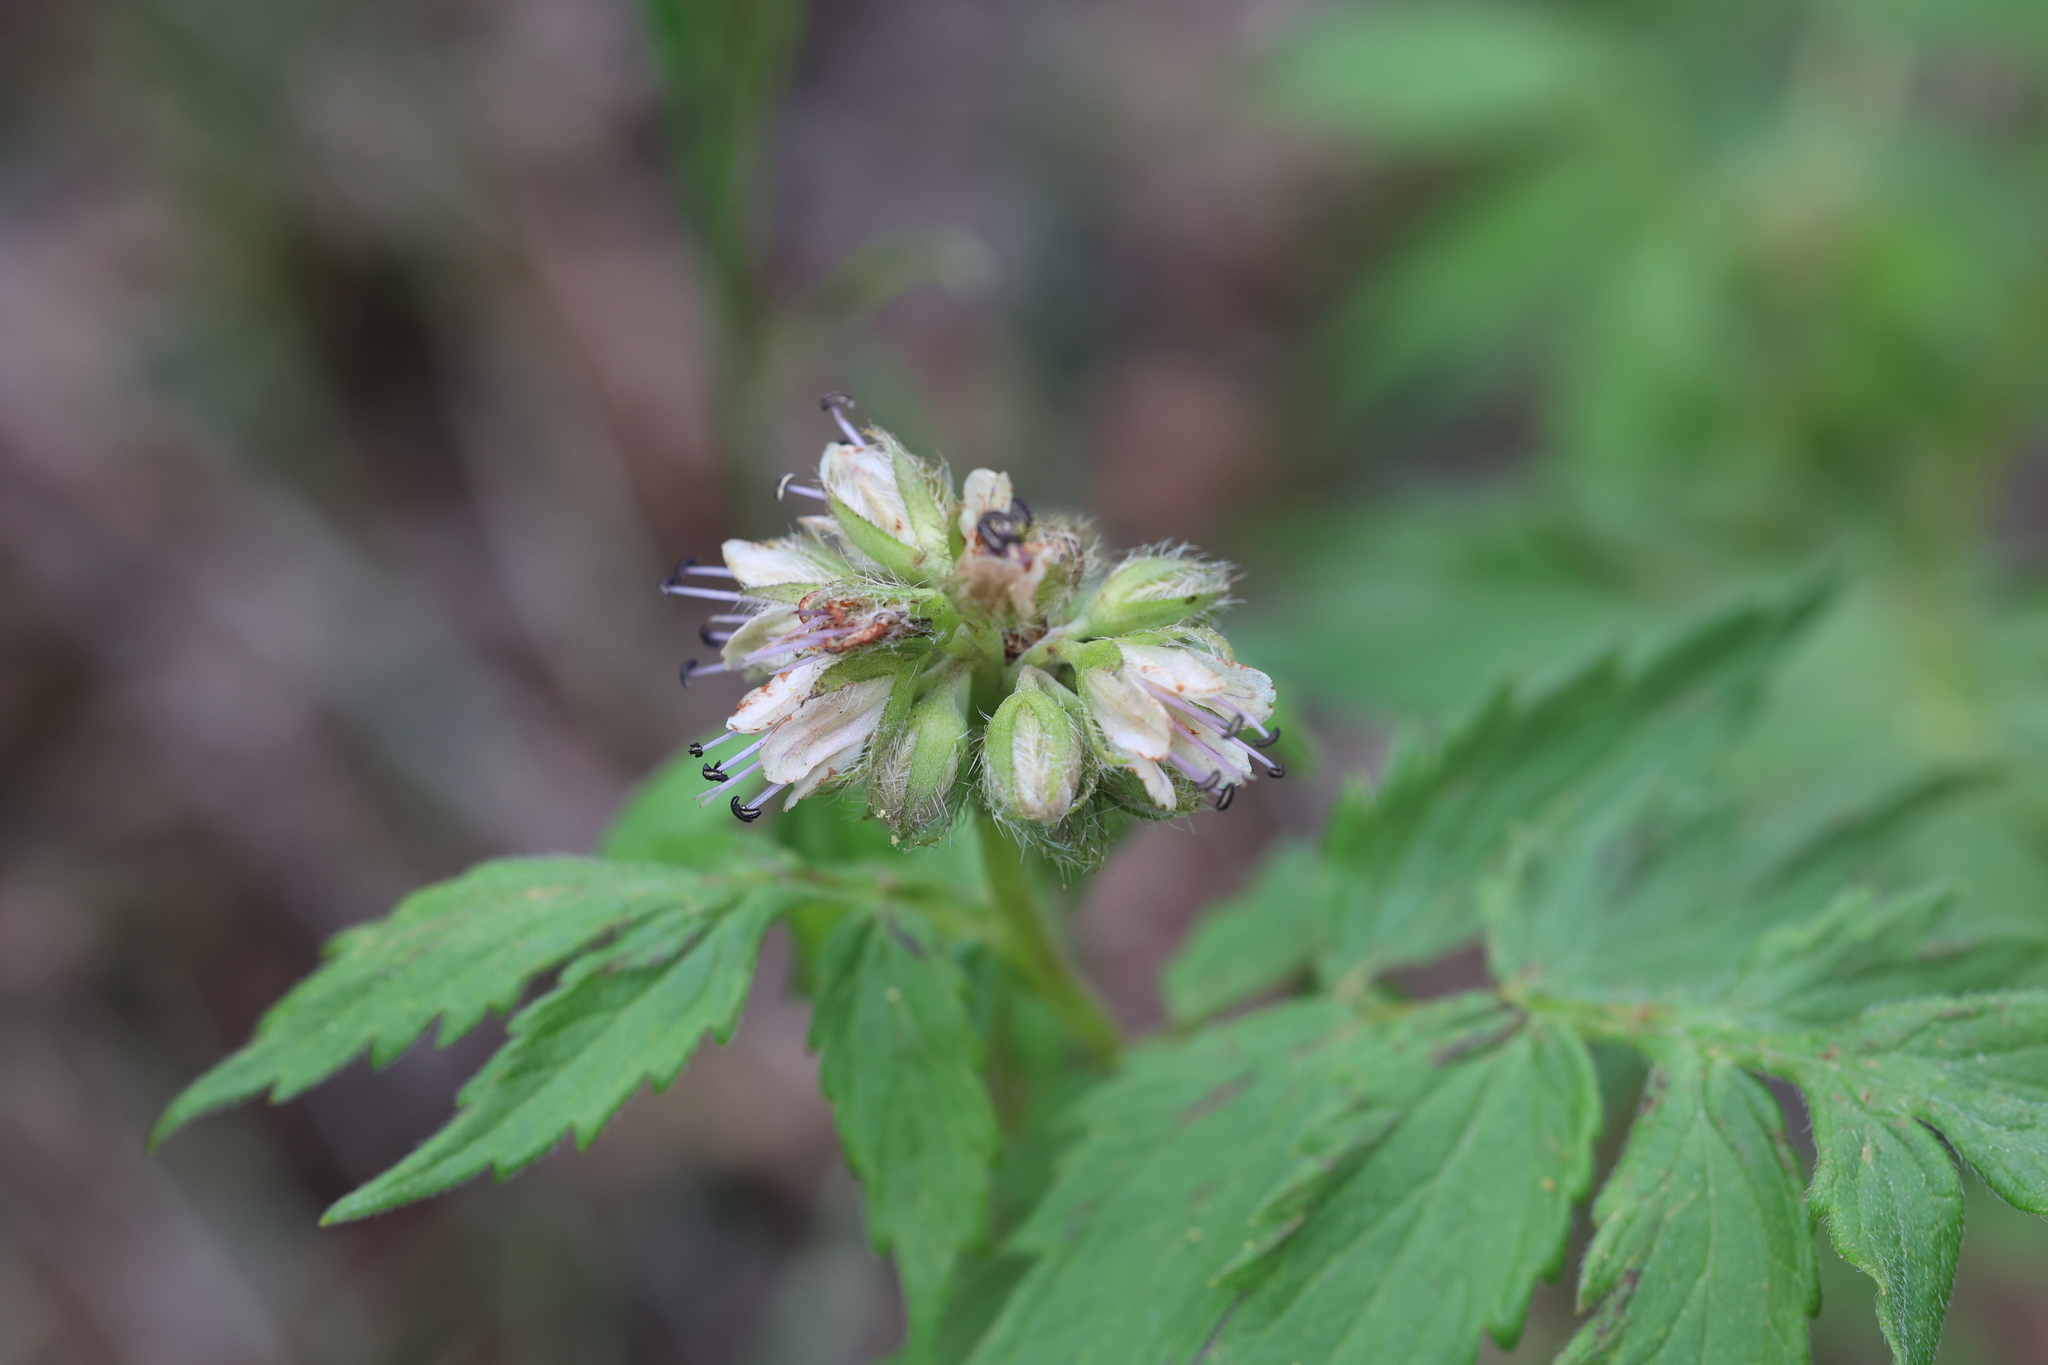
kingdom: Plantae
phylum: Tracheophyta
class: Magnoliopsida
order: Boraginales
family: Hydrophyllaceae
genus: Hydrophyllum
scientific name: Hydrophyllum fendleri
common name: Fendler's waterleaf
